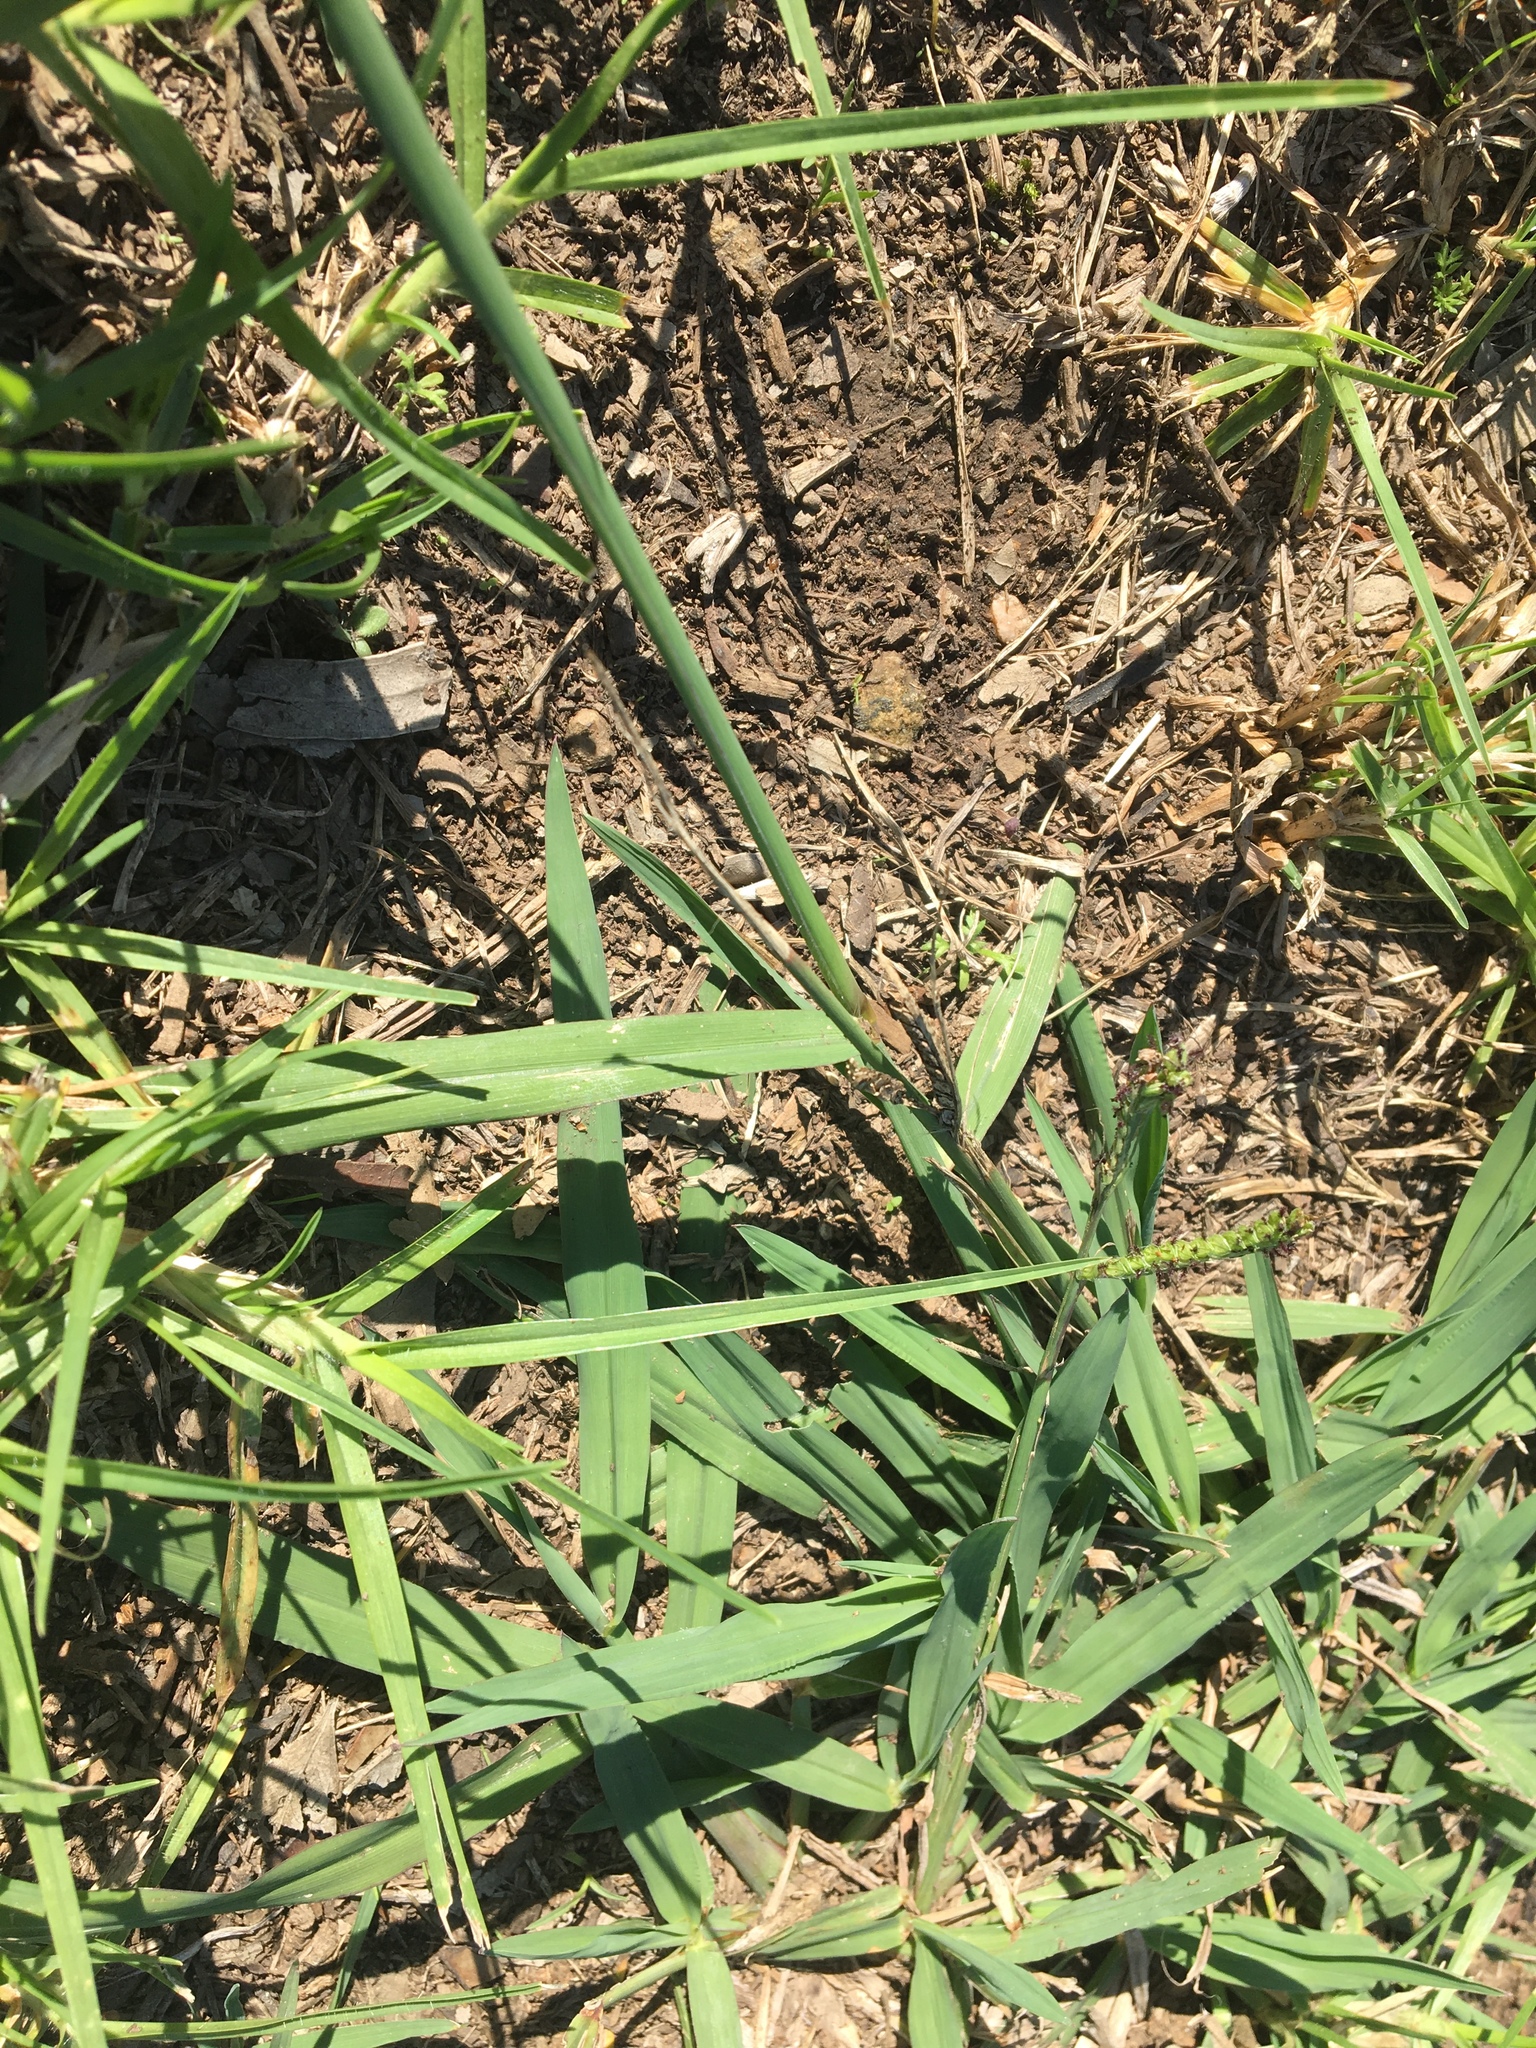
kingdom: Plantae
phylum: Tracheophyta
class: Liliopsida
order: Poales
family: Poaceae
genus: Paspalum
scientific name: Paspalum dilatatum
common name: Dallisgrass
